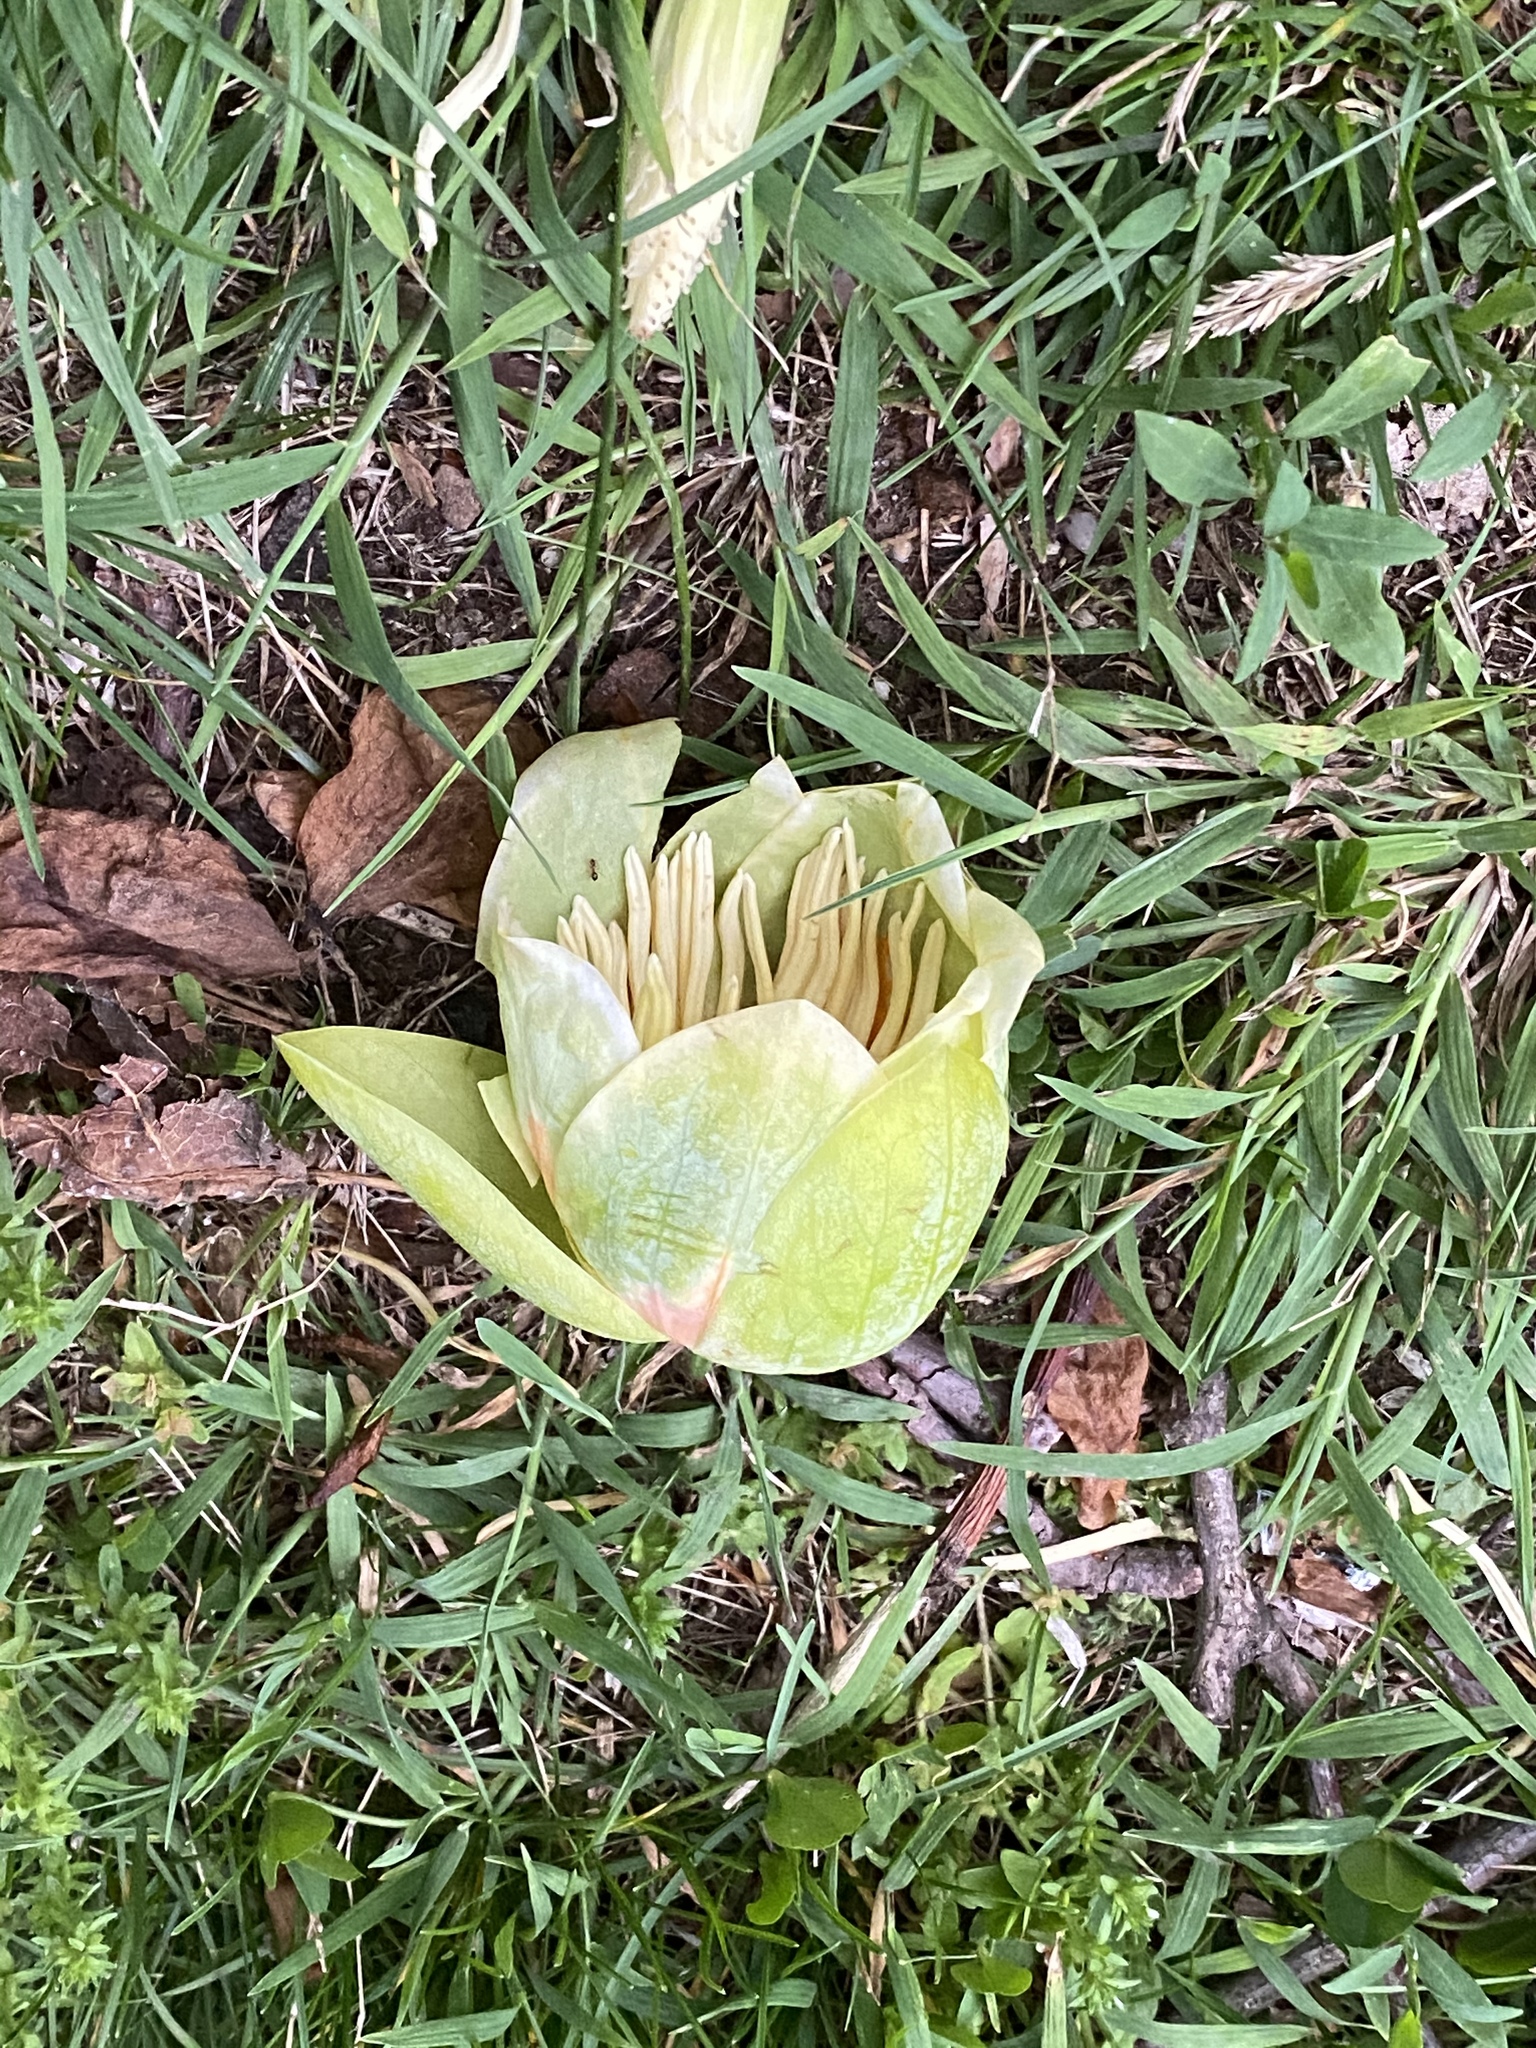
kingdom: Plantae
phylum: Tracheophyta
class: Magnoliopsida
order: Magnoliales
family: Magnoliaceae
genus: Liriodendron
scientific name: Liriodendron tulipifera
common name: Tulip tree
